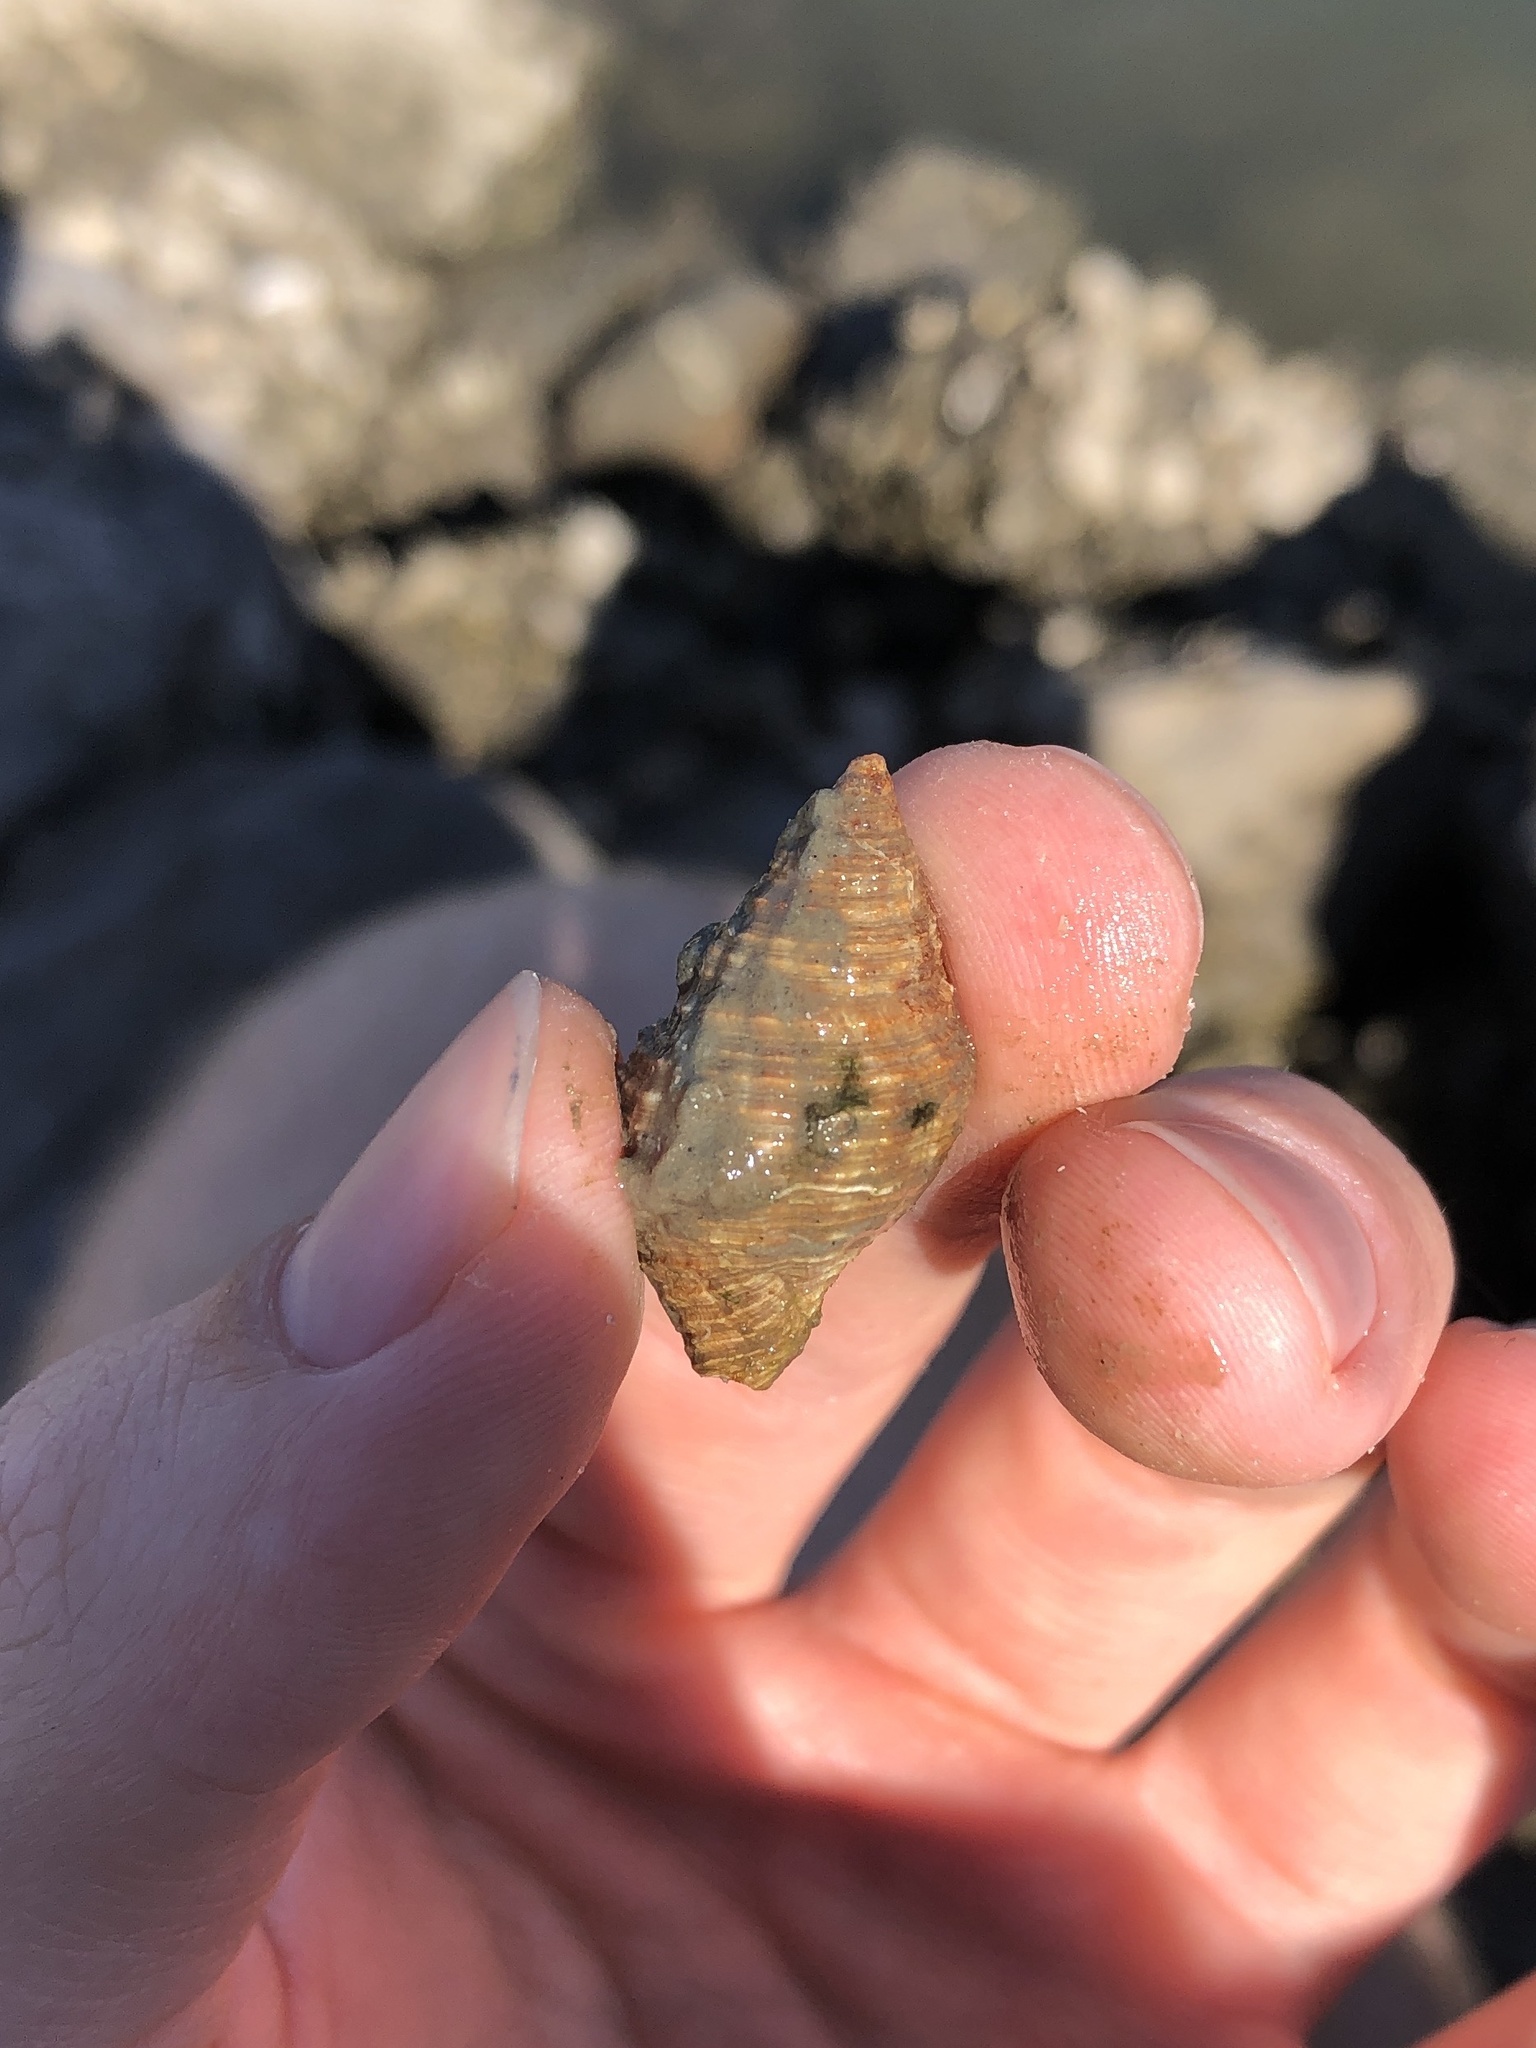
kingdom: Animalia
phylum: Mollusca
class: Gastropoda
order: Neogastropoda
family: Pisaniidae
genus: Gemophos
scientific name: Gemophos tinctus
